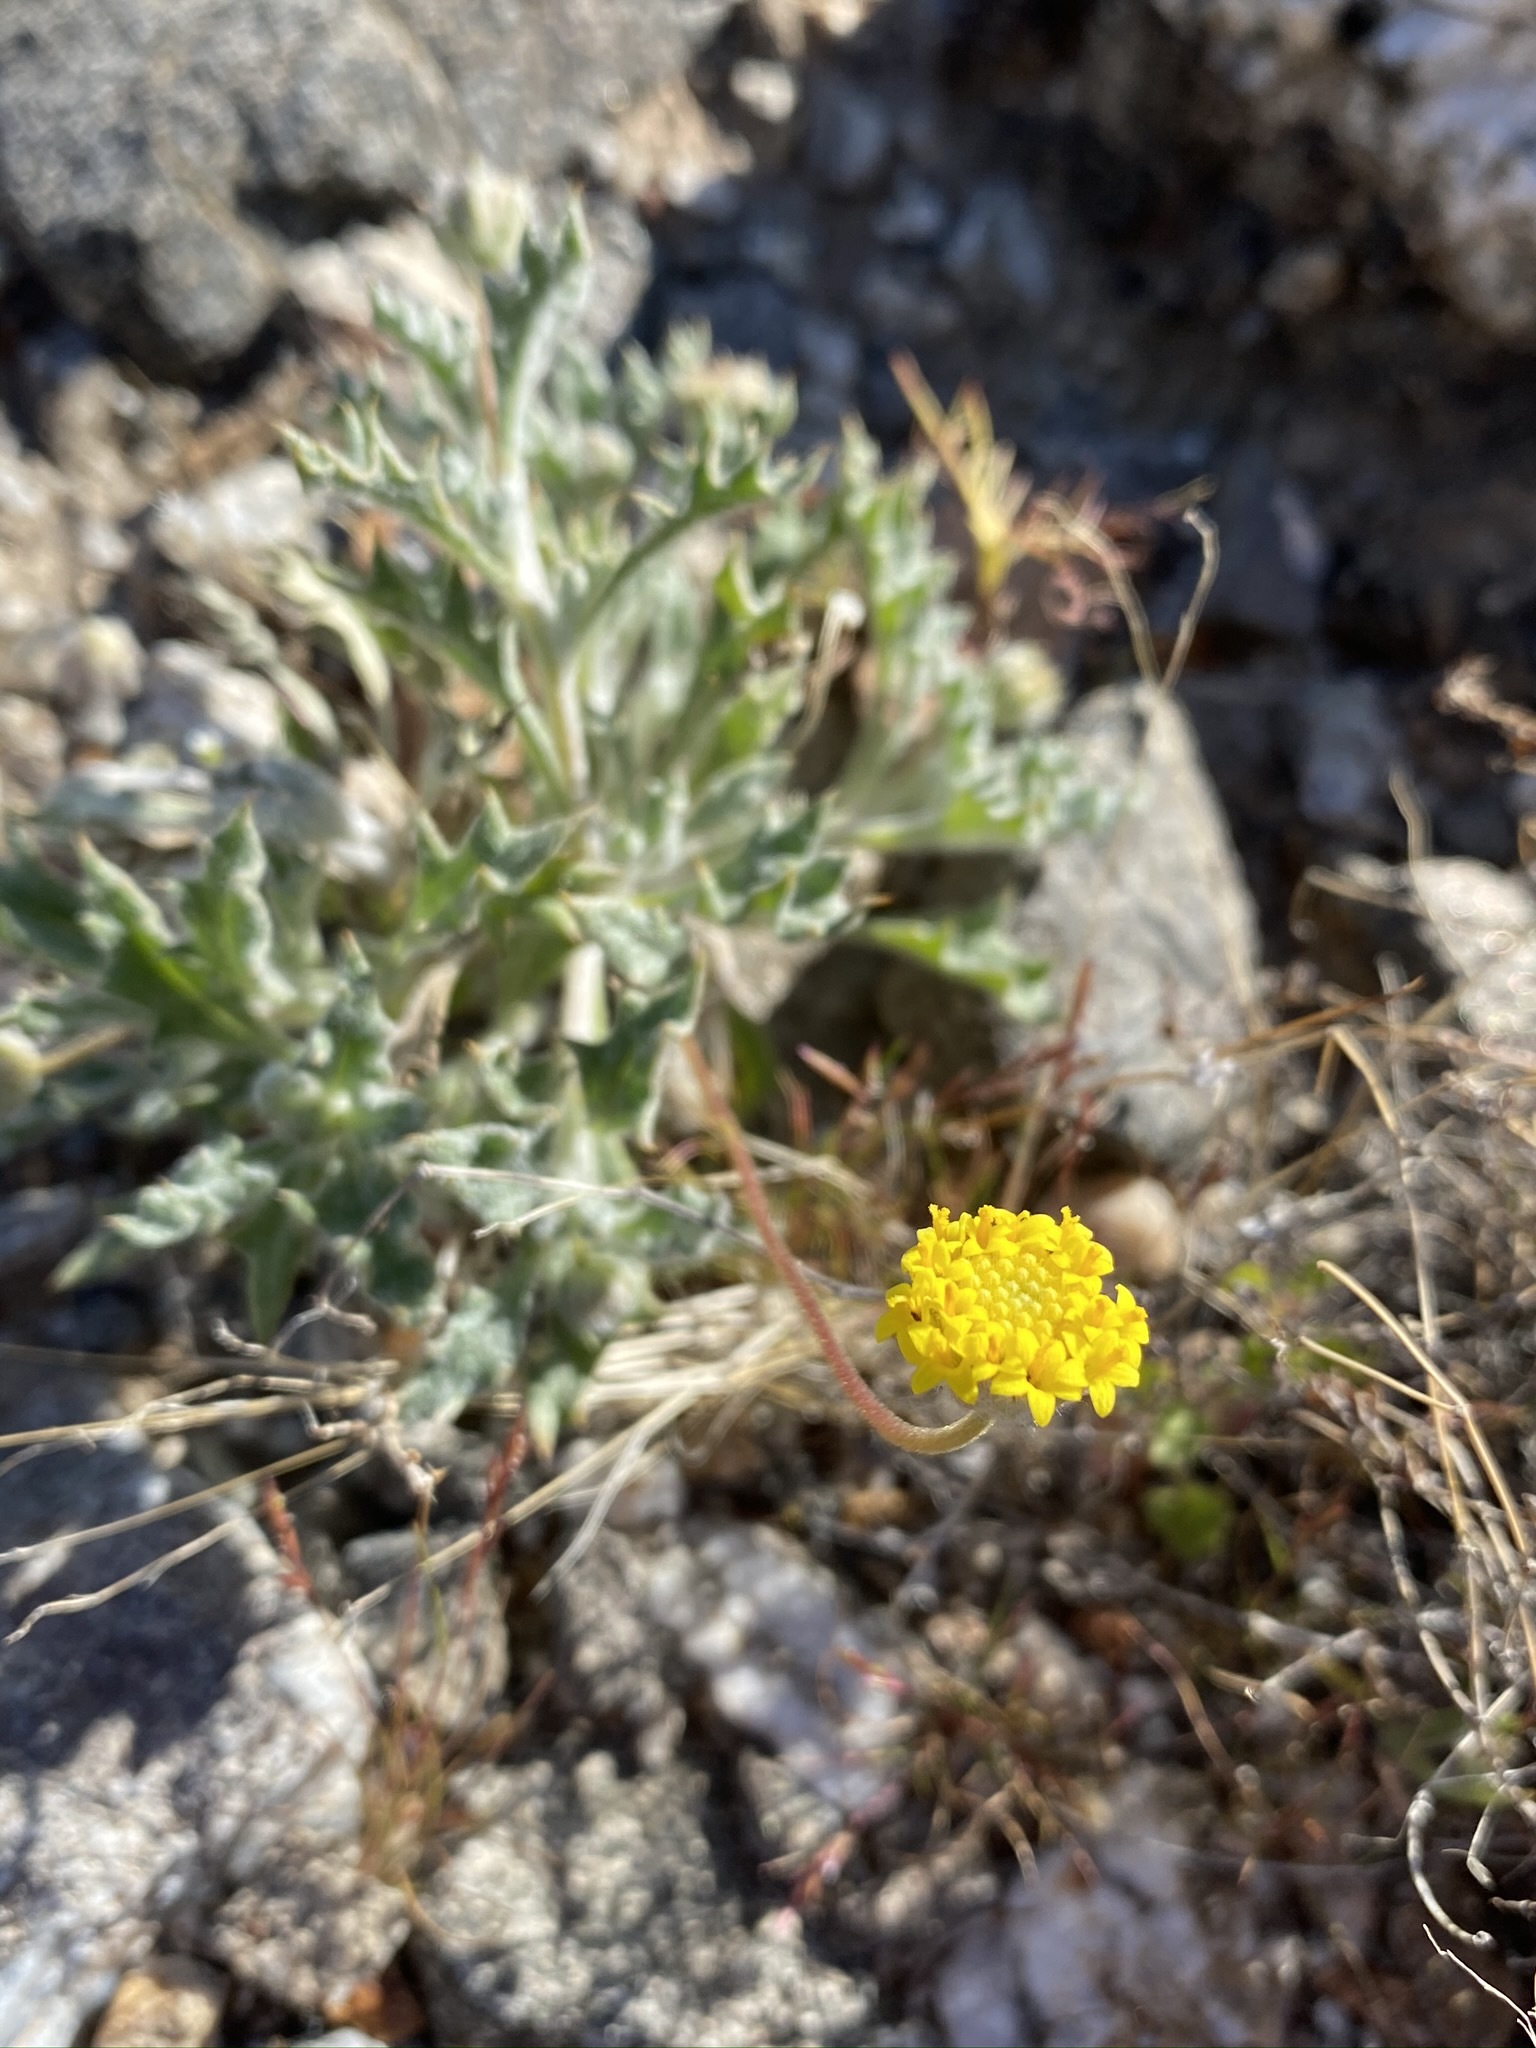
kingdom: Plantae
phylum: Tracheophyta
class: Magnoliopsida
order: Asterales
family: Asteraceae
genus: Trichoptilium
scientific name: Trichoptilium incisum
